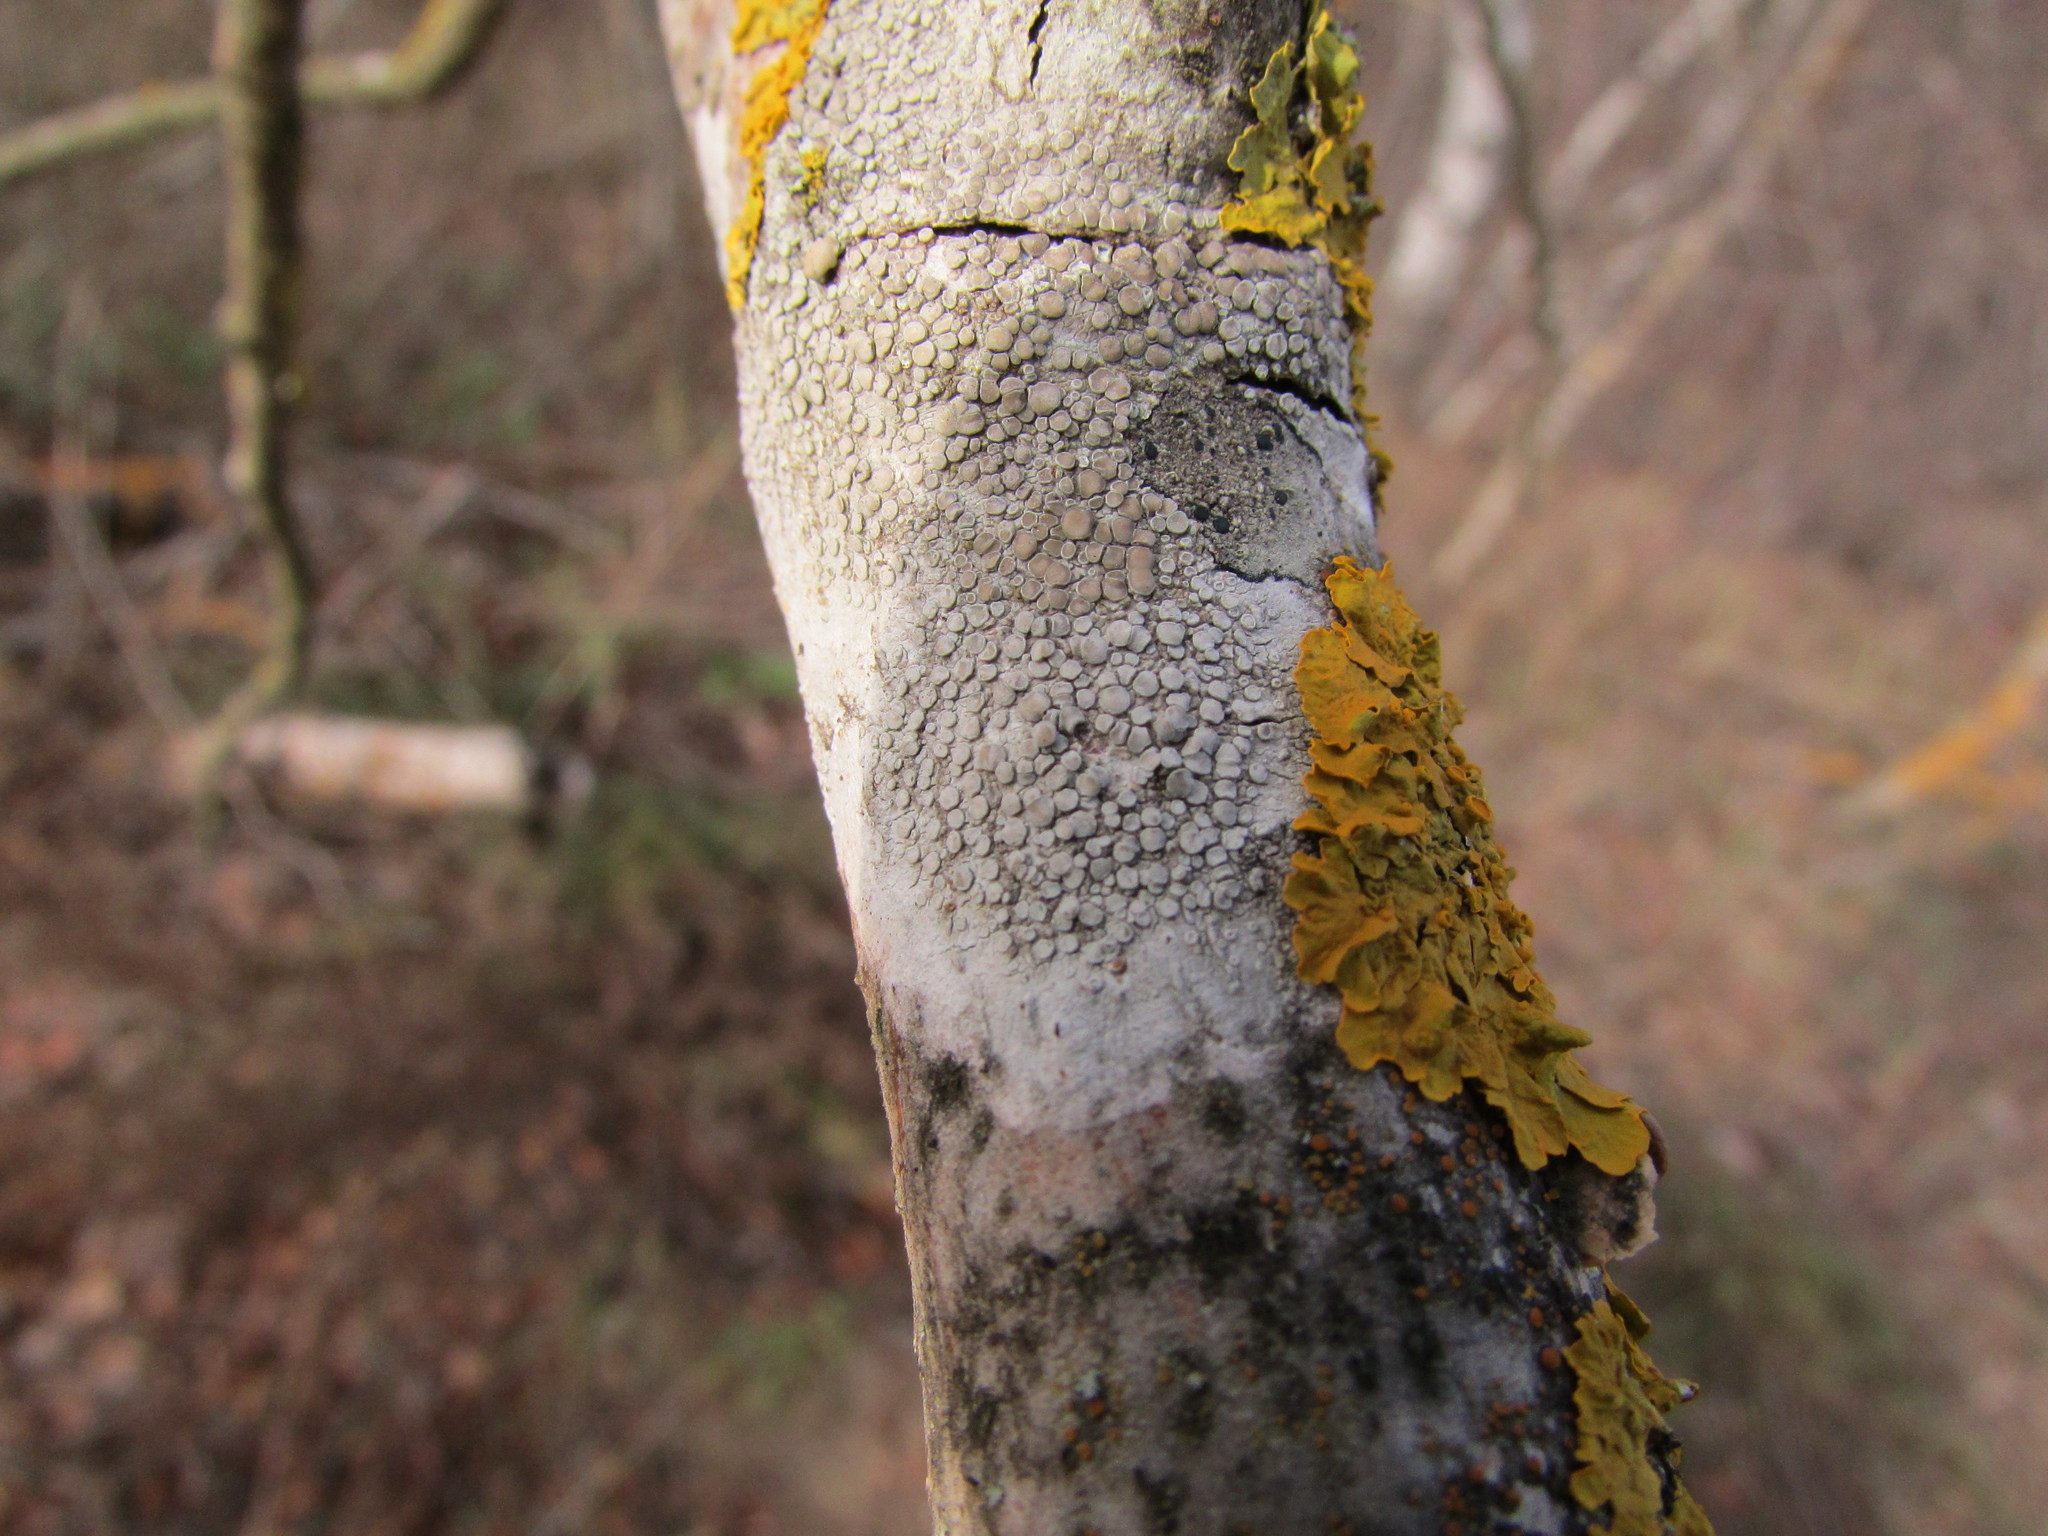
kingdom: Fungi
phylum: Ascomycota
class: Lecanoromycetes
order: Lecanorales
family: Lecanoraceae
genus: Glaucomaria
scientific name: Glaucomaria carpinea
